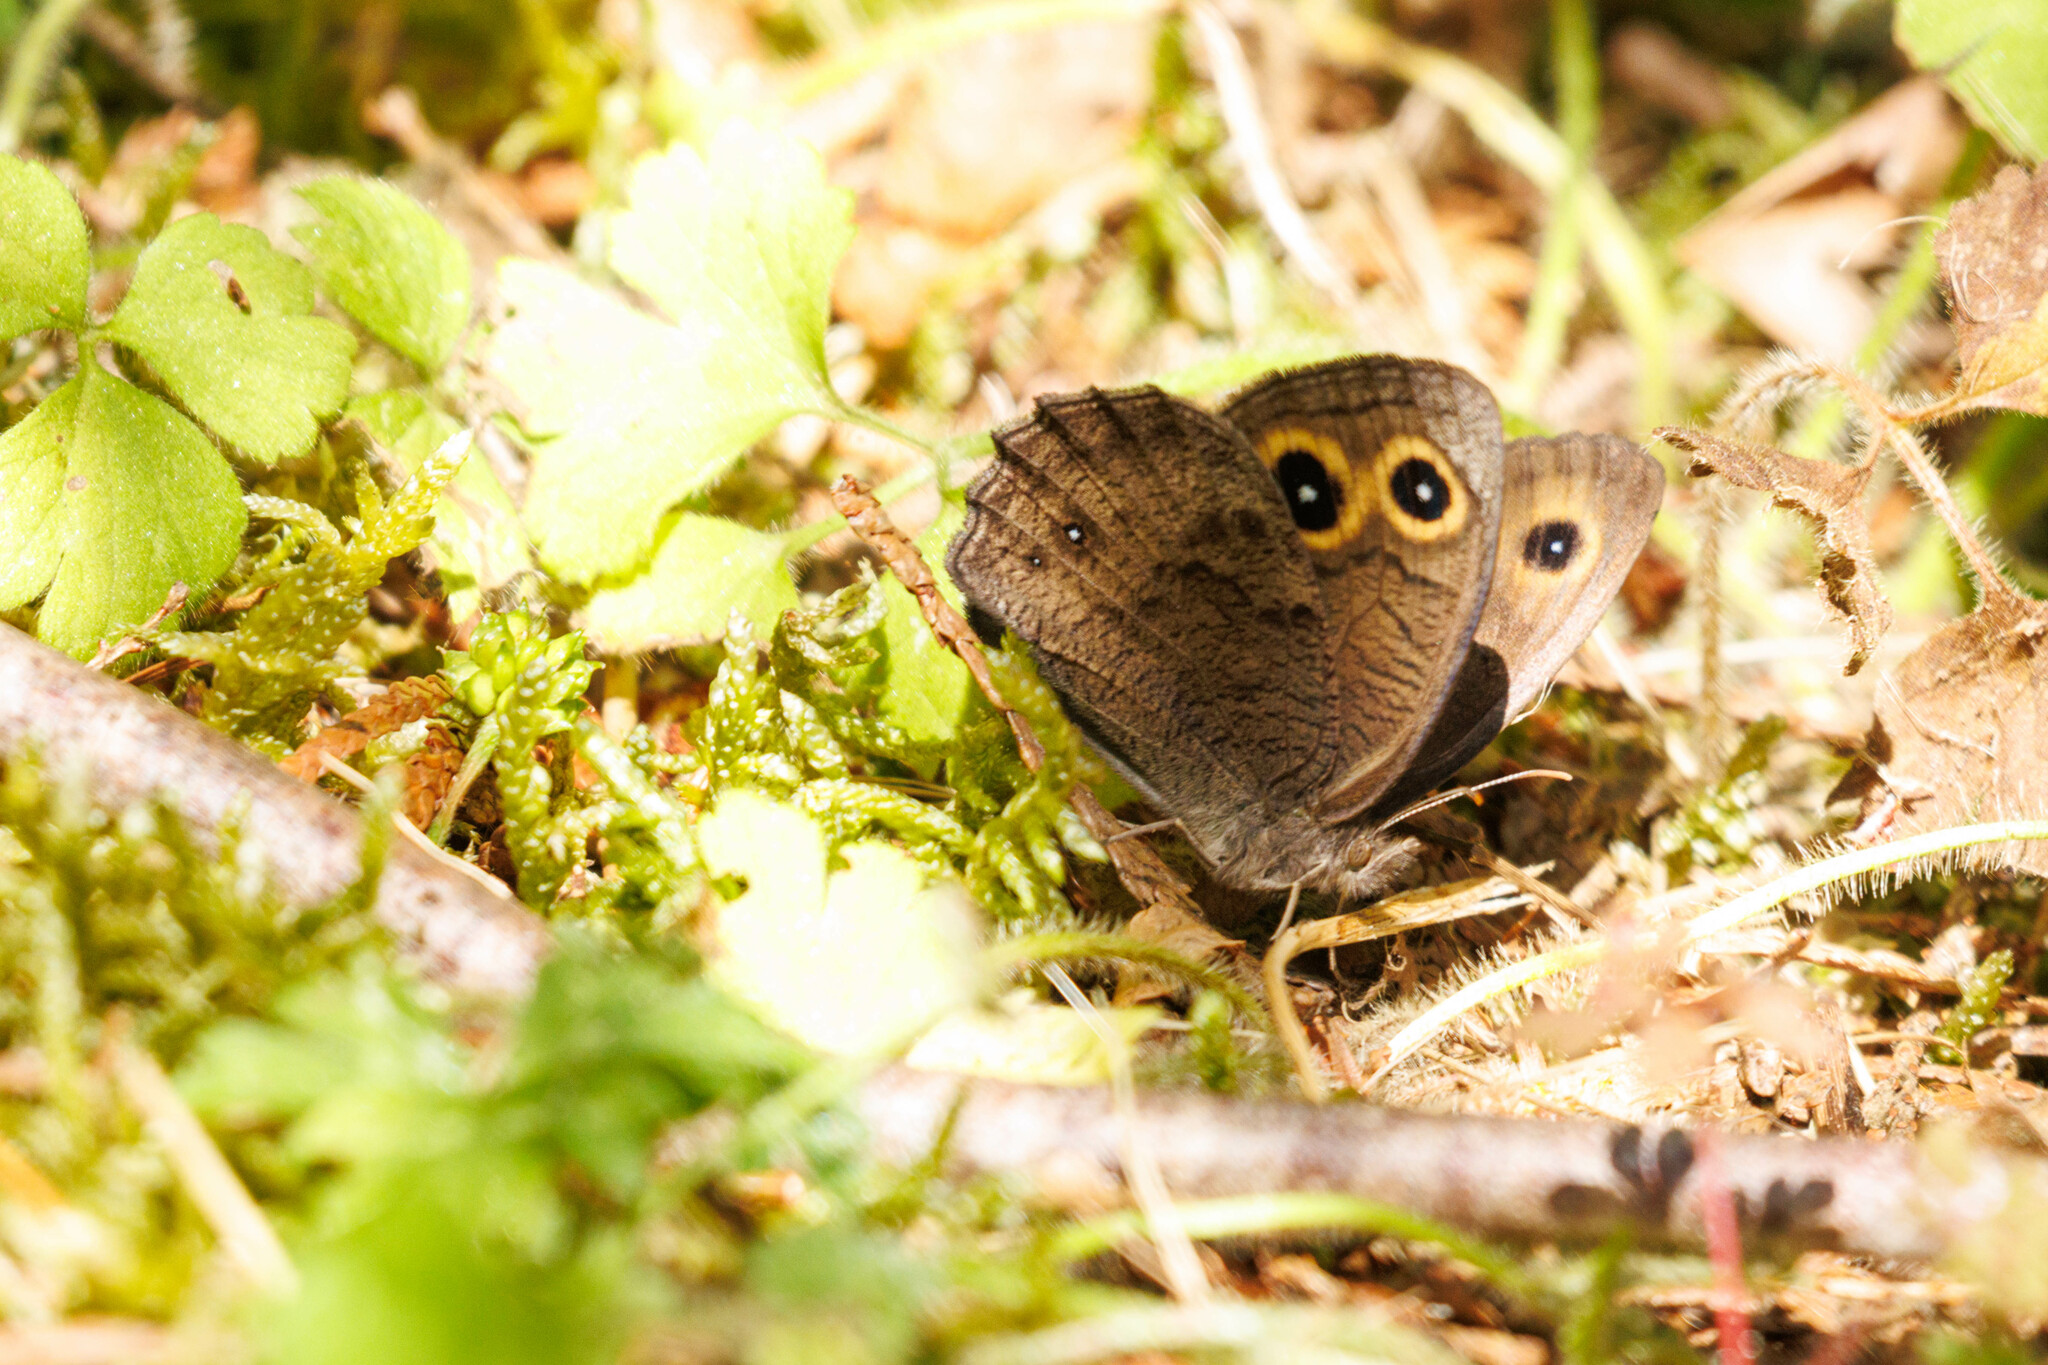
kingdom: Animalia
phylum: Arthropoda
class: Insecta
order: Lepidoptera
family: Nymphalidae
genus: Cercyonis
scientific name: Cercyonis pegala
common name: Common wood-nymph
